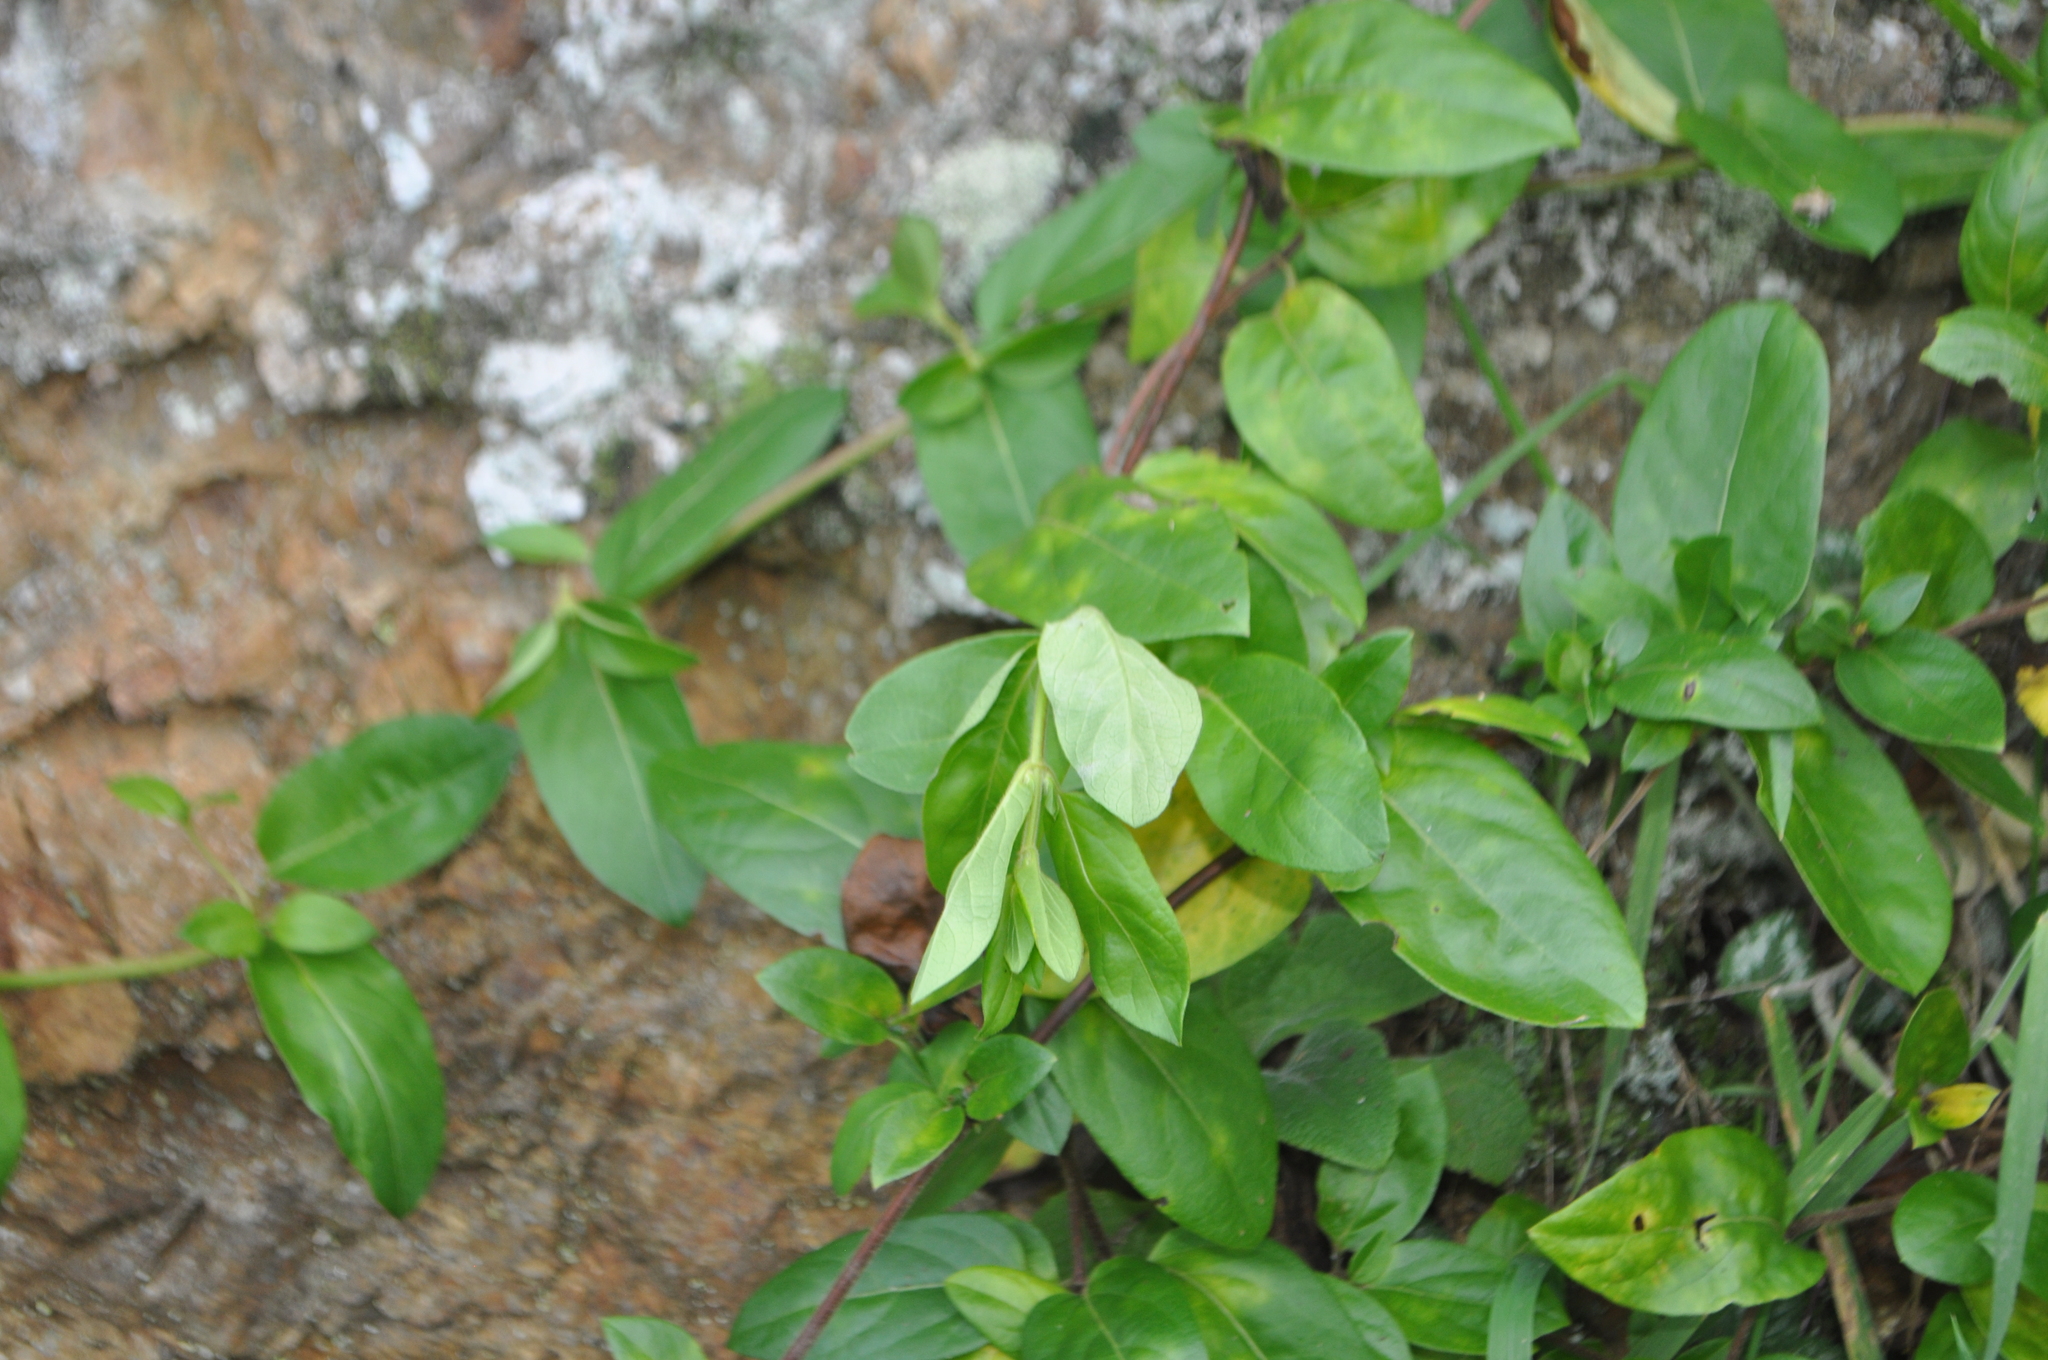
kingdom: Plantae
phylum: Tracheophyta
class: Magnoliopsida
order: Dipsacales
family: Caprifoliaceae
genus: Lonicera
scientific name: Lonicera japonica
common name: Japanese honeysuckle
